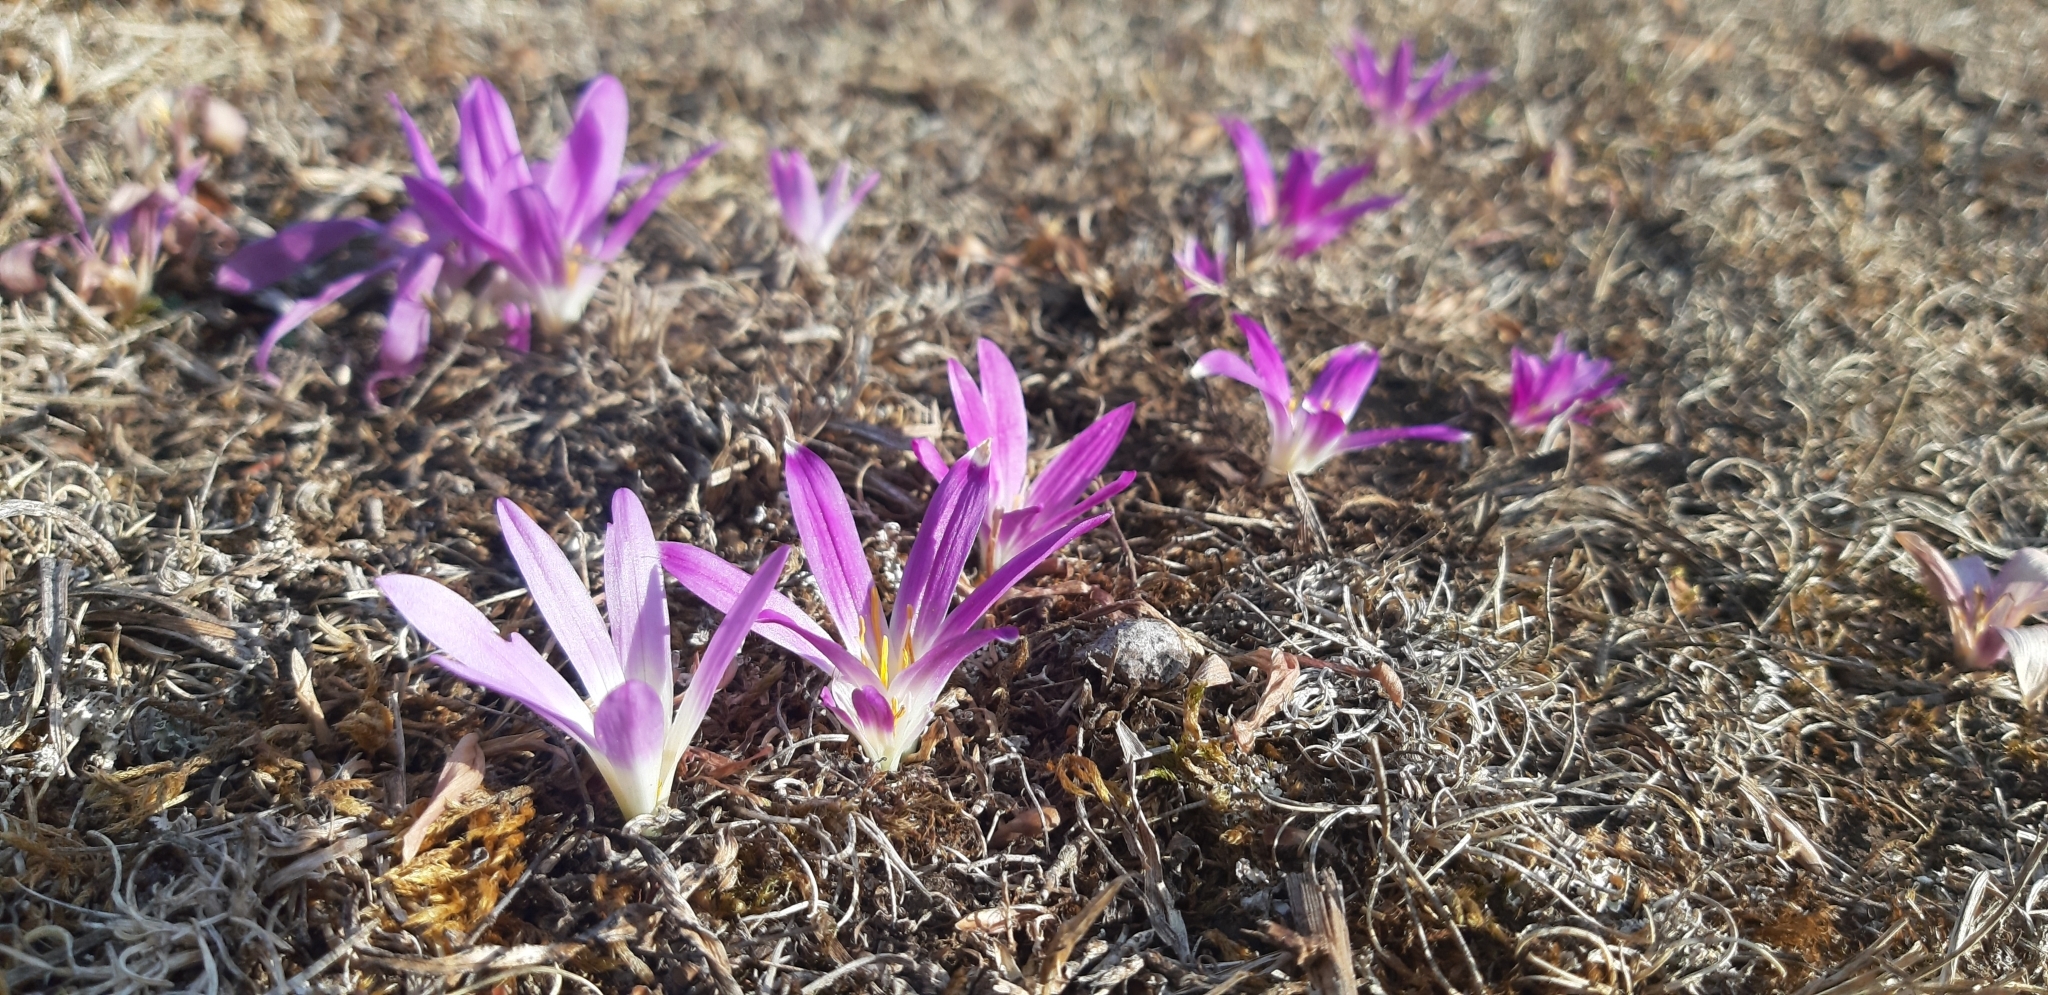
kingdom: Plantae
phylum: Tracheophyta
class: Liliopsida
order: Liliales
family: Colchicaceae
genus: Colchicum
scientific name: Colchicum montanum
